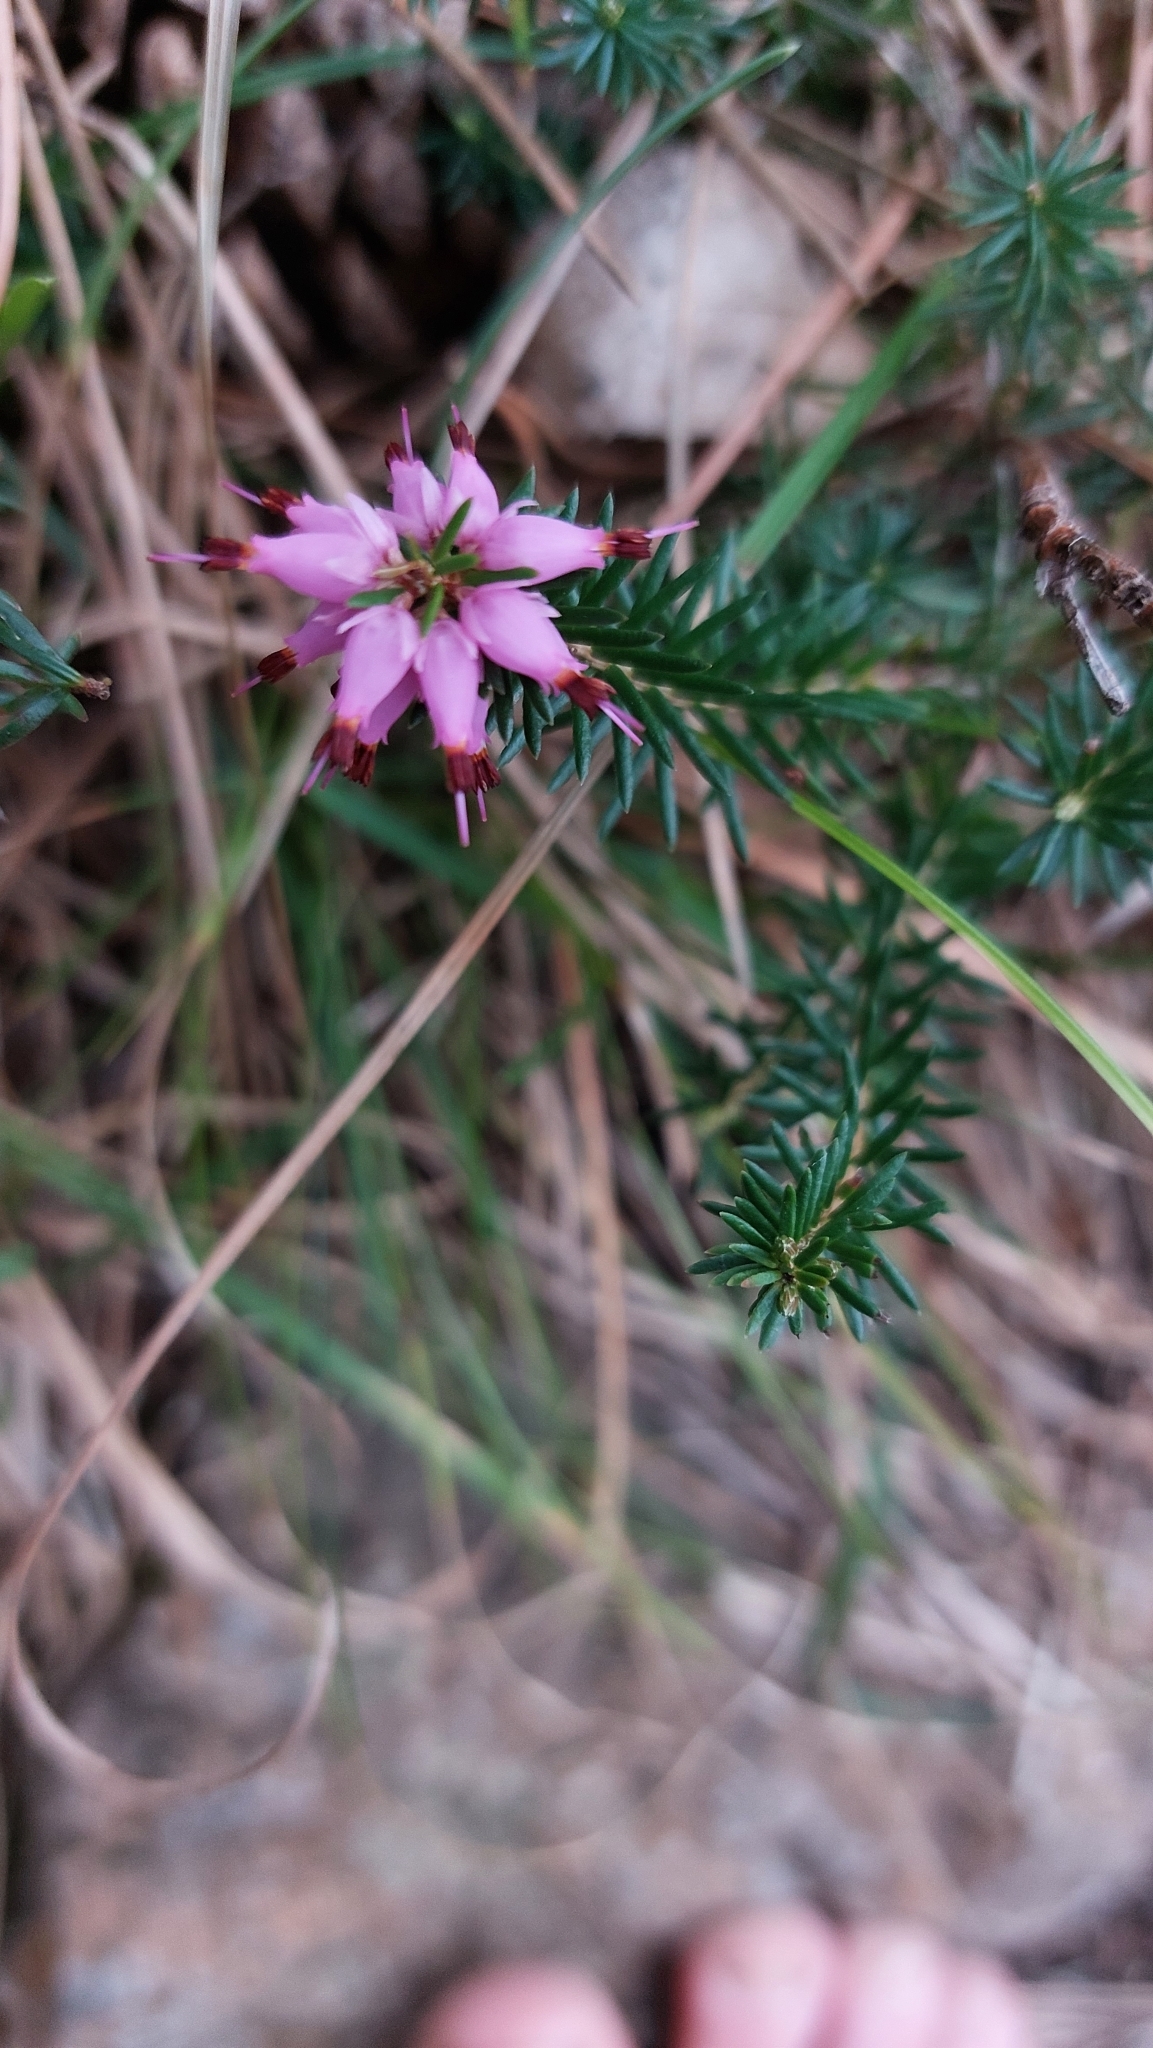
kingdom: Plantae
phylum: Tracheophyta
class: Magnoliopsida
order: Ericales
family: Ericaceae
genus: Erica
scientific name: Erica carnea
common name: Winter heath
